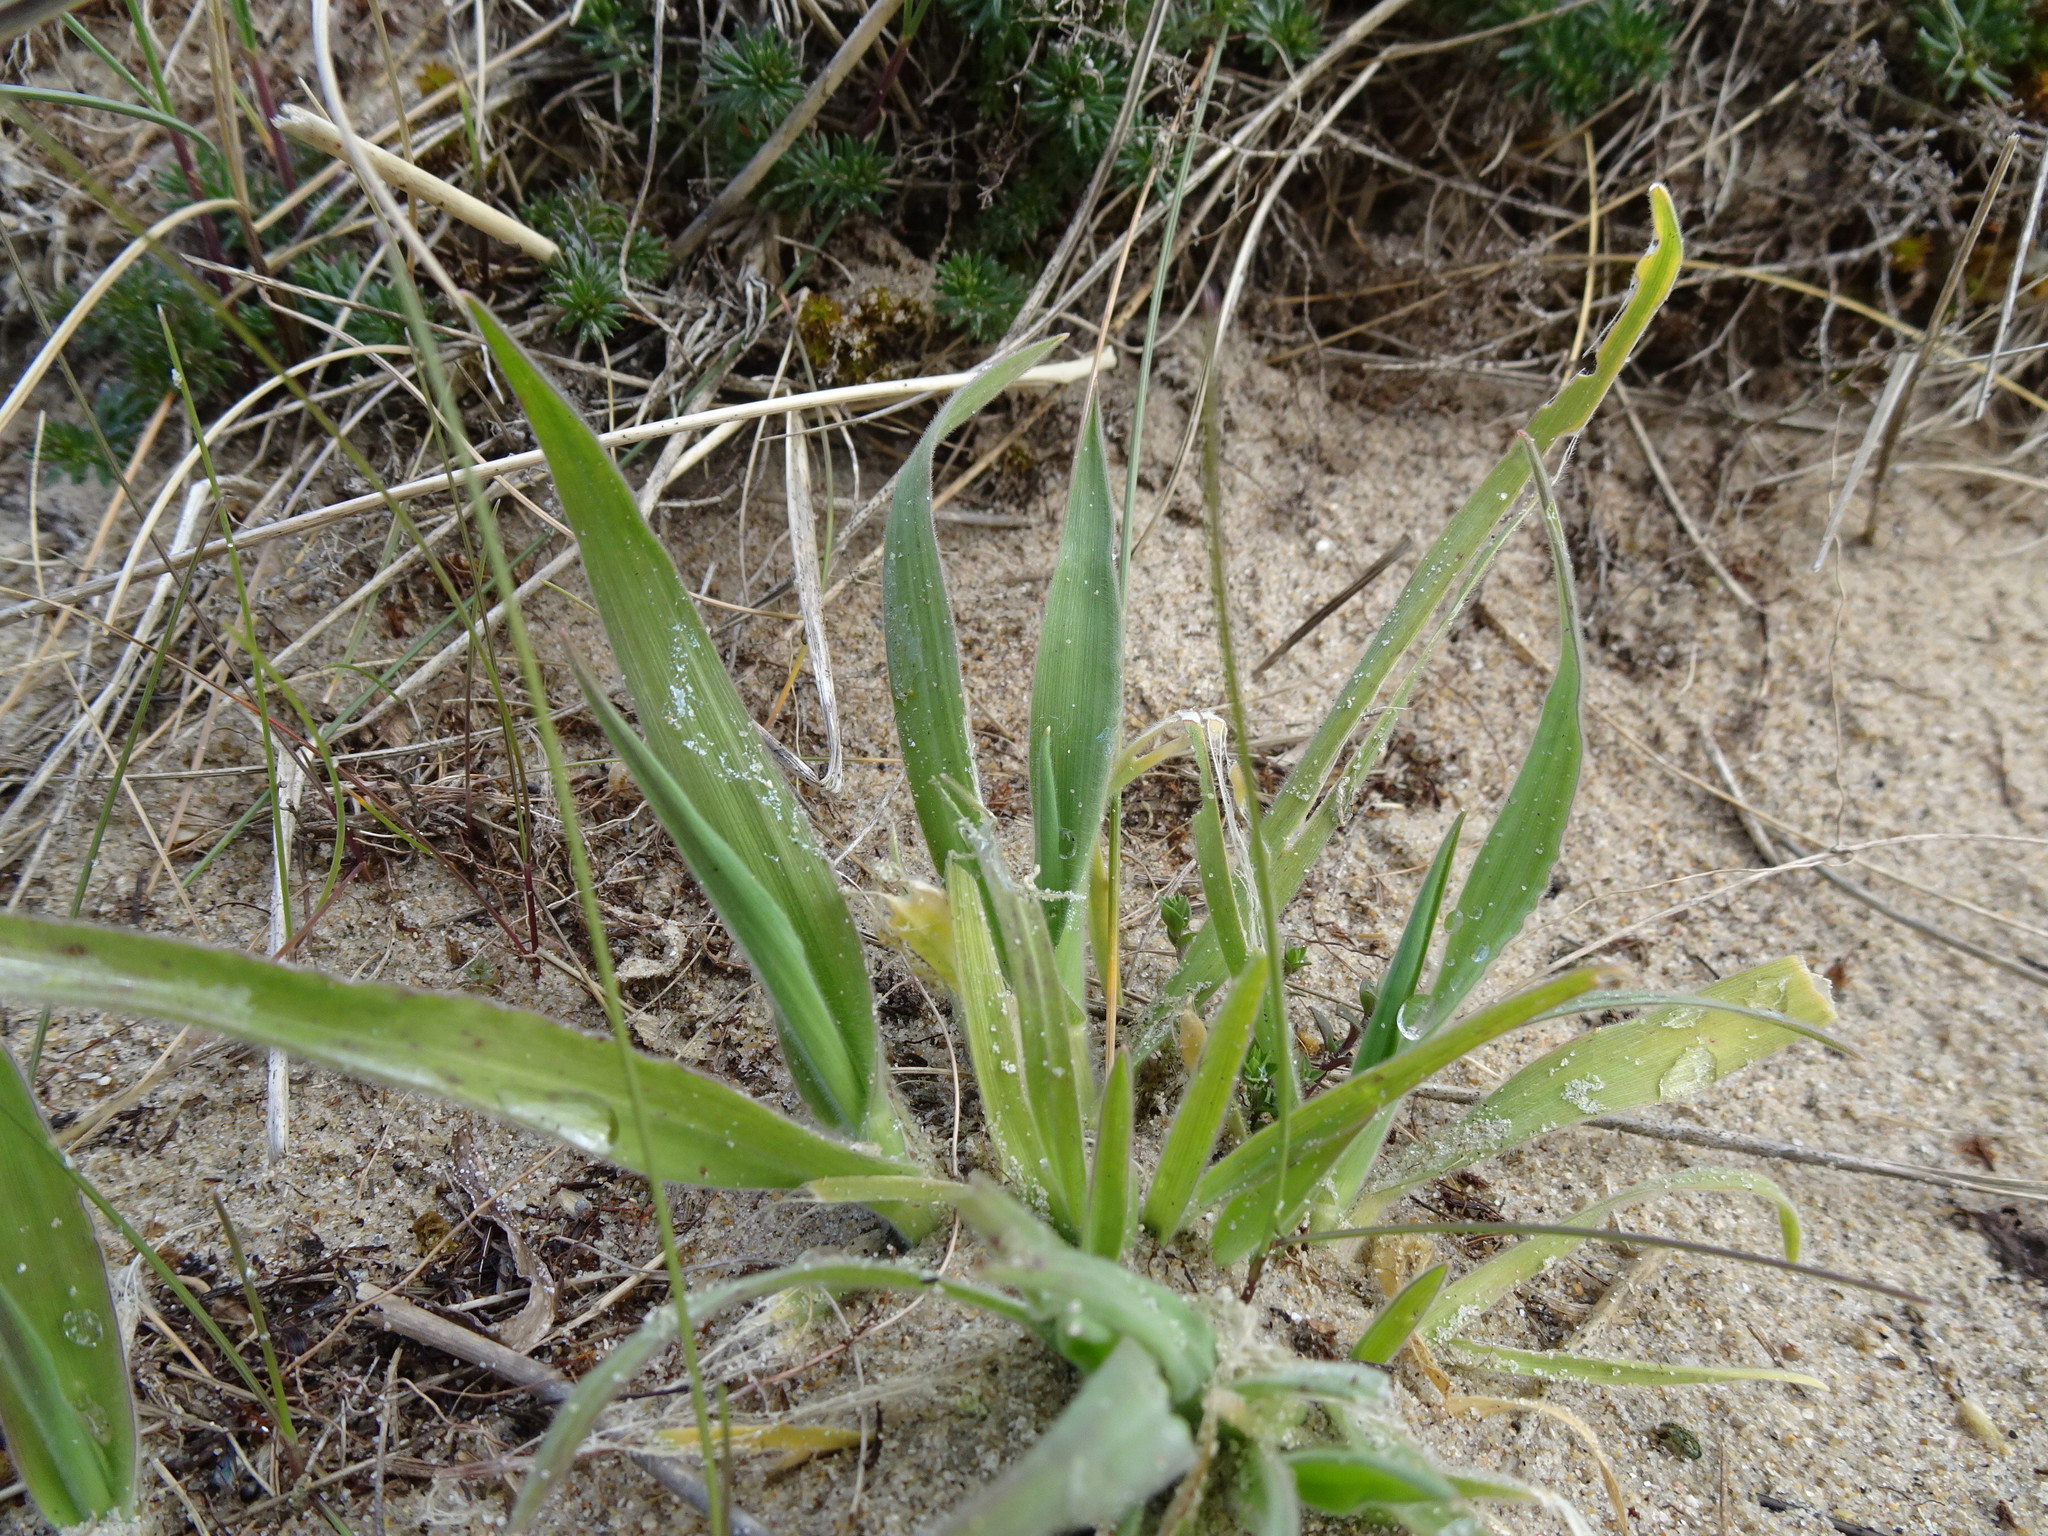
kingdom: Plantae
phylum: Tracheophyta
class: Liliopsida
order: Poales
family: Poaceae
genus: Lagurus
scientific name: Lagurus ovatus
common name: Hare's-tail
